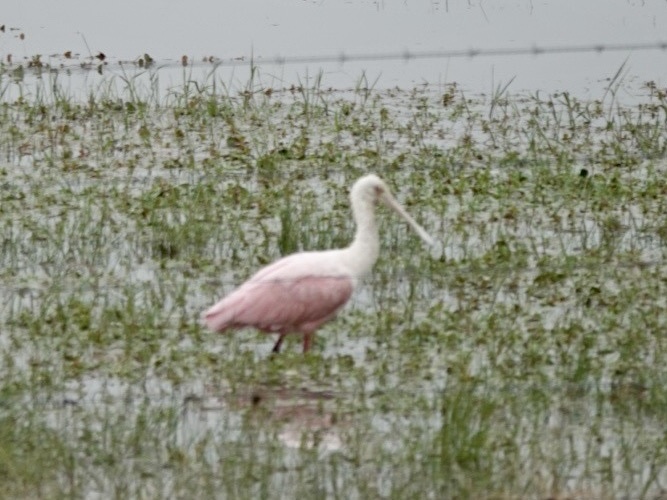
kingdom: Animalia
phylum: Chordata
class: Aves
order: Pelecaniformes
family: Threskiornithidae
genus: Platalea
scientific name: Platalea ajaja
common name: Roseate spoonbill
